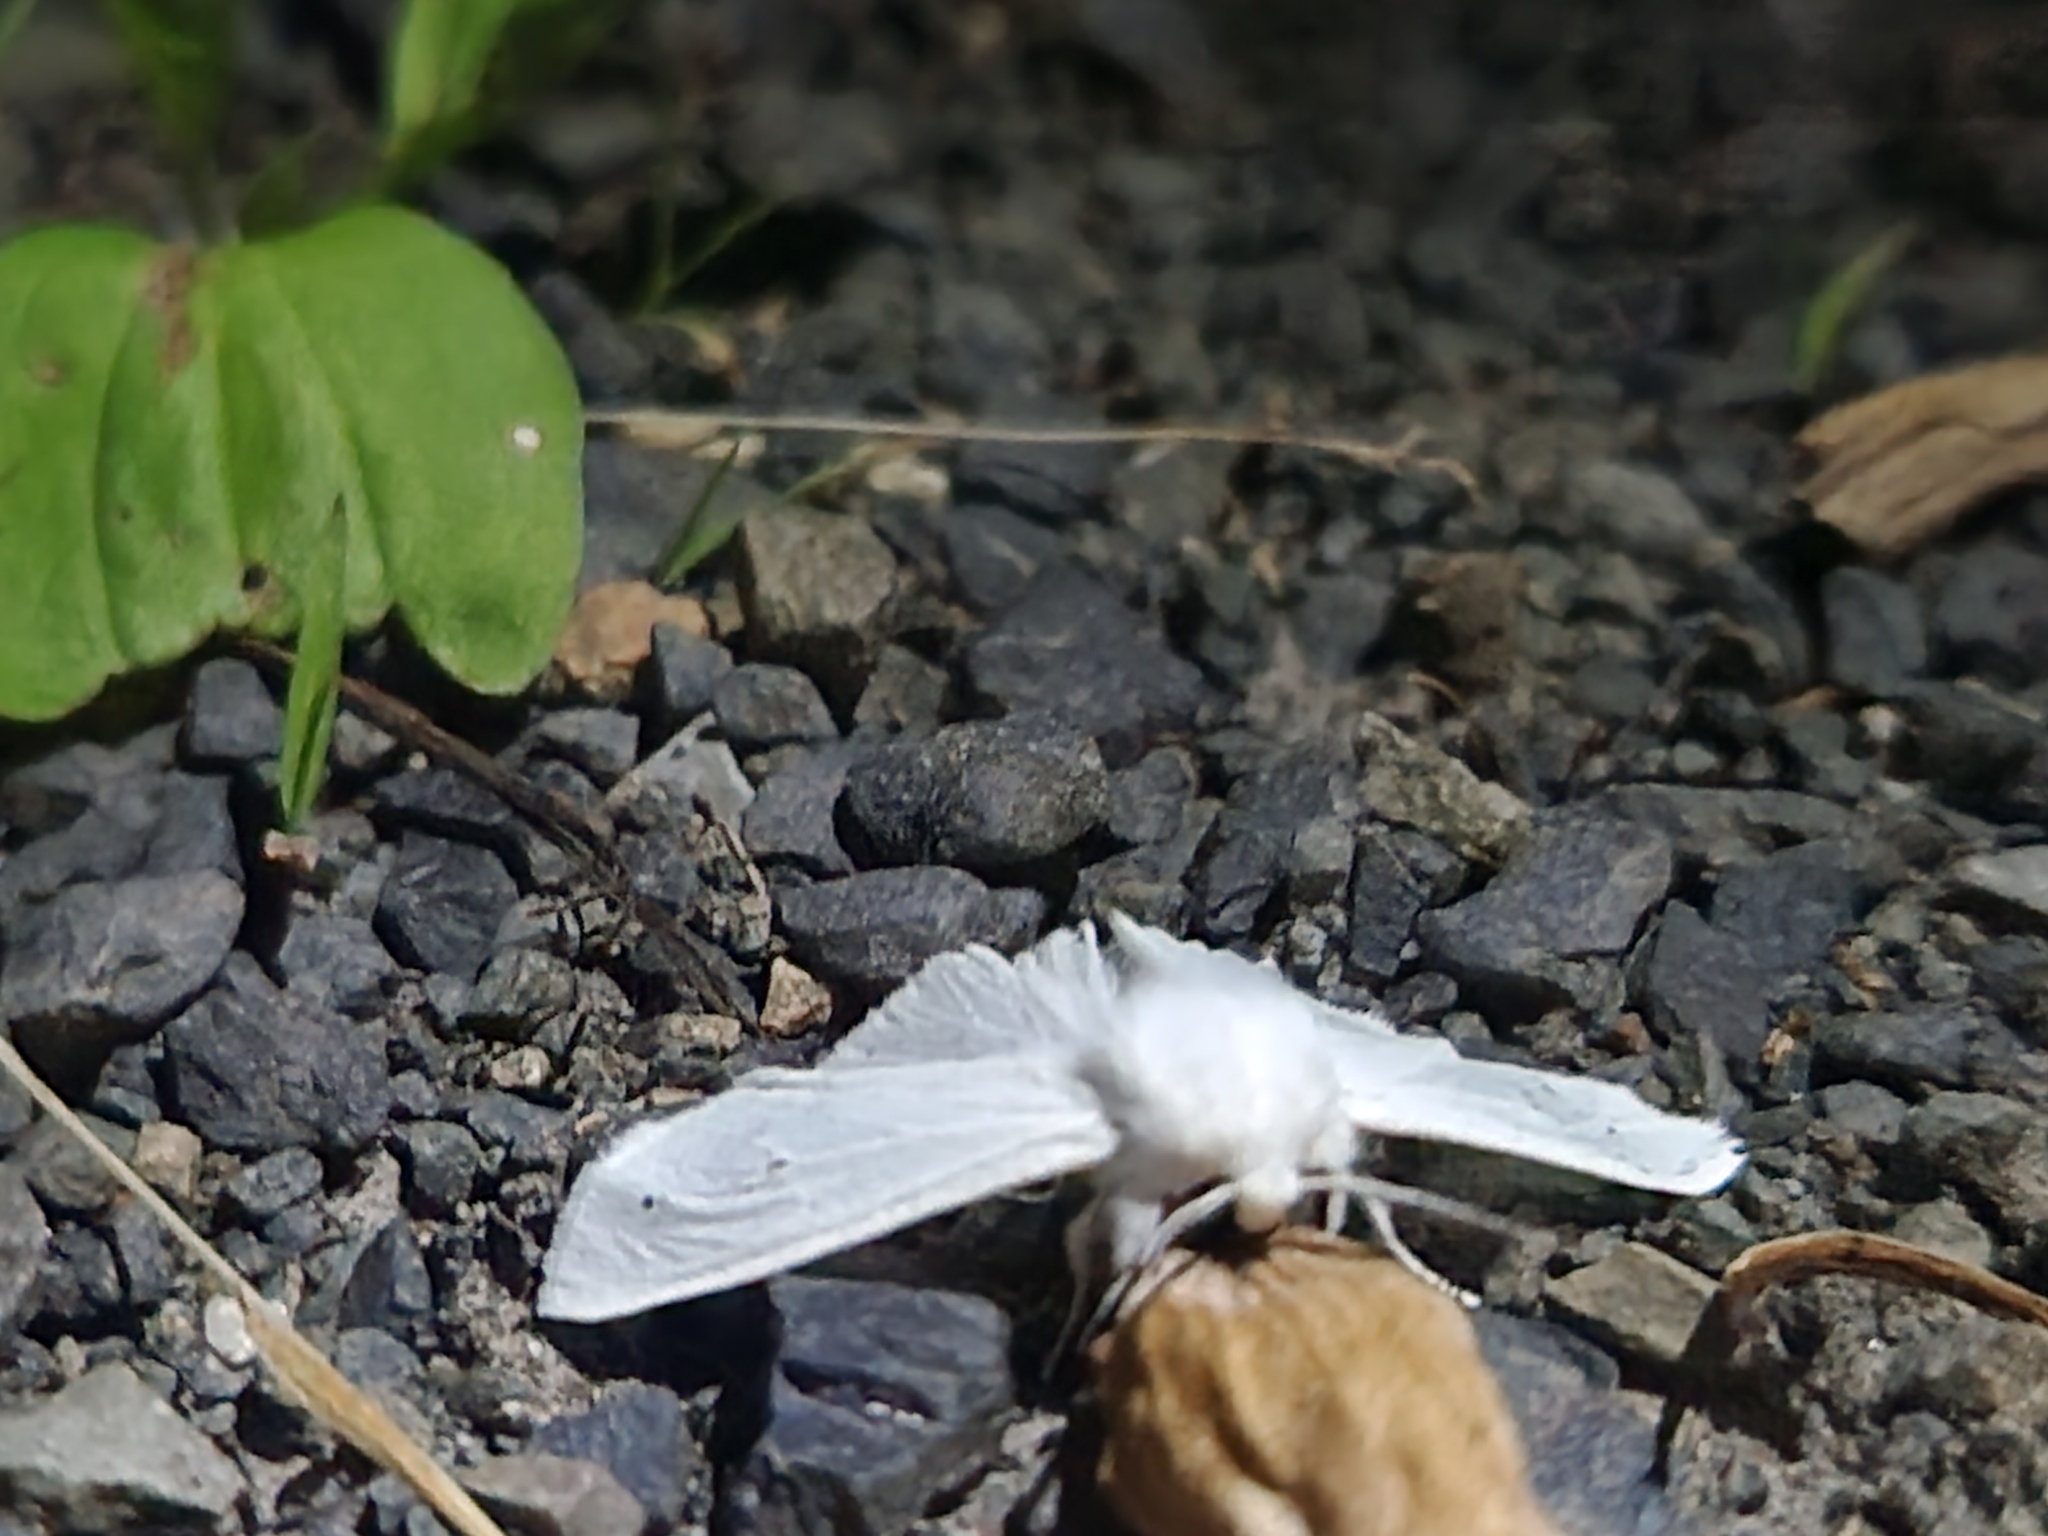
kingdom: Animalia
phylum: Arthropoda
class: Insecta
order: Lepidoptera
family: Erebidae
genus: Spilosoma
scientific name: Spilosoma virginica
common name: Virginia tiger moth
